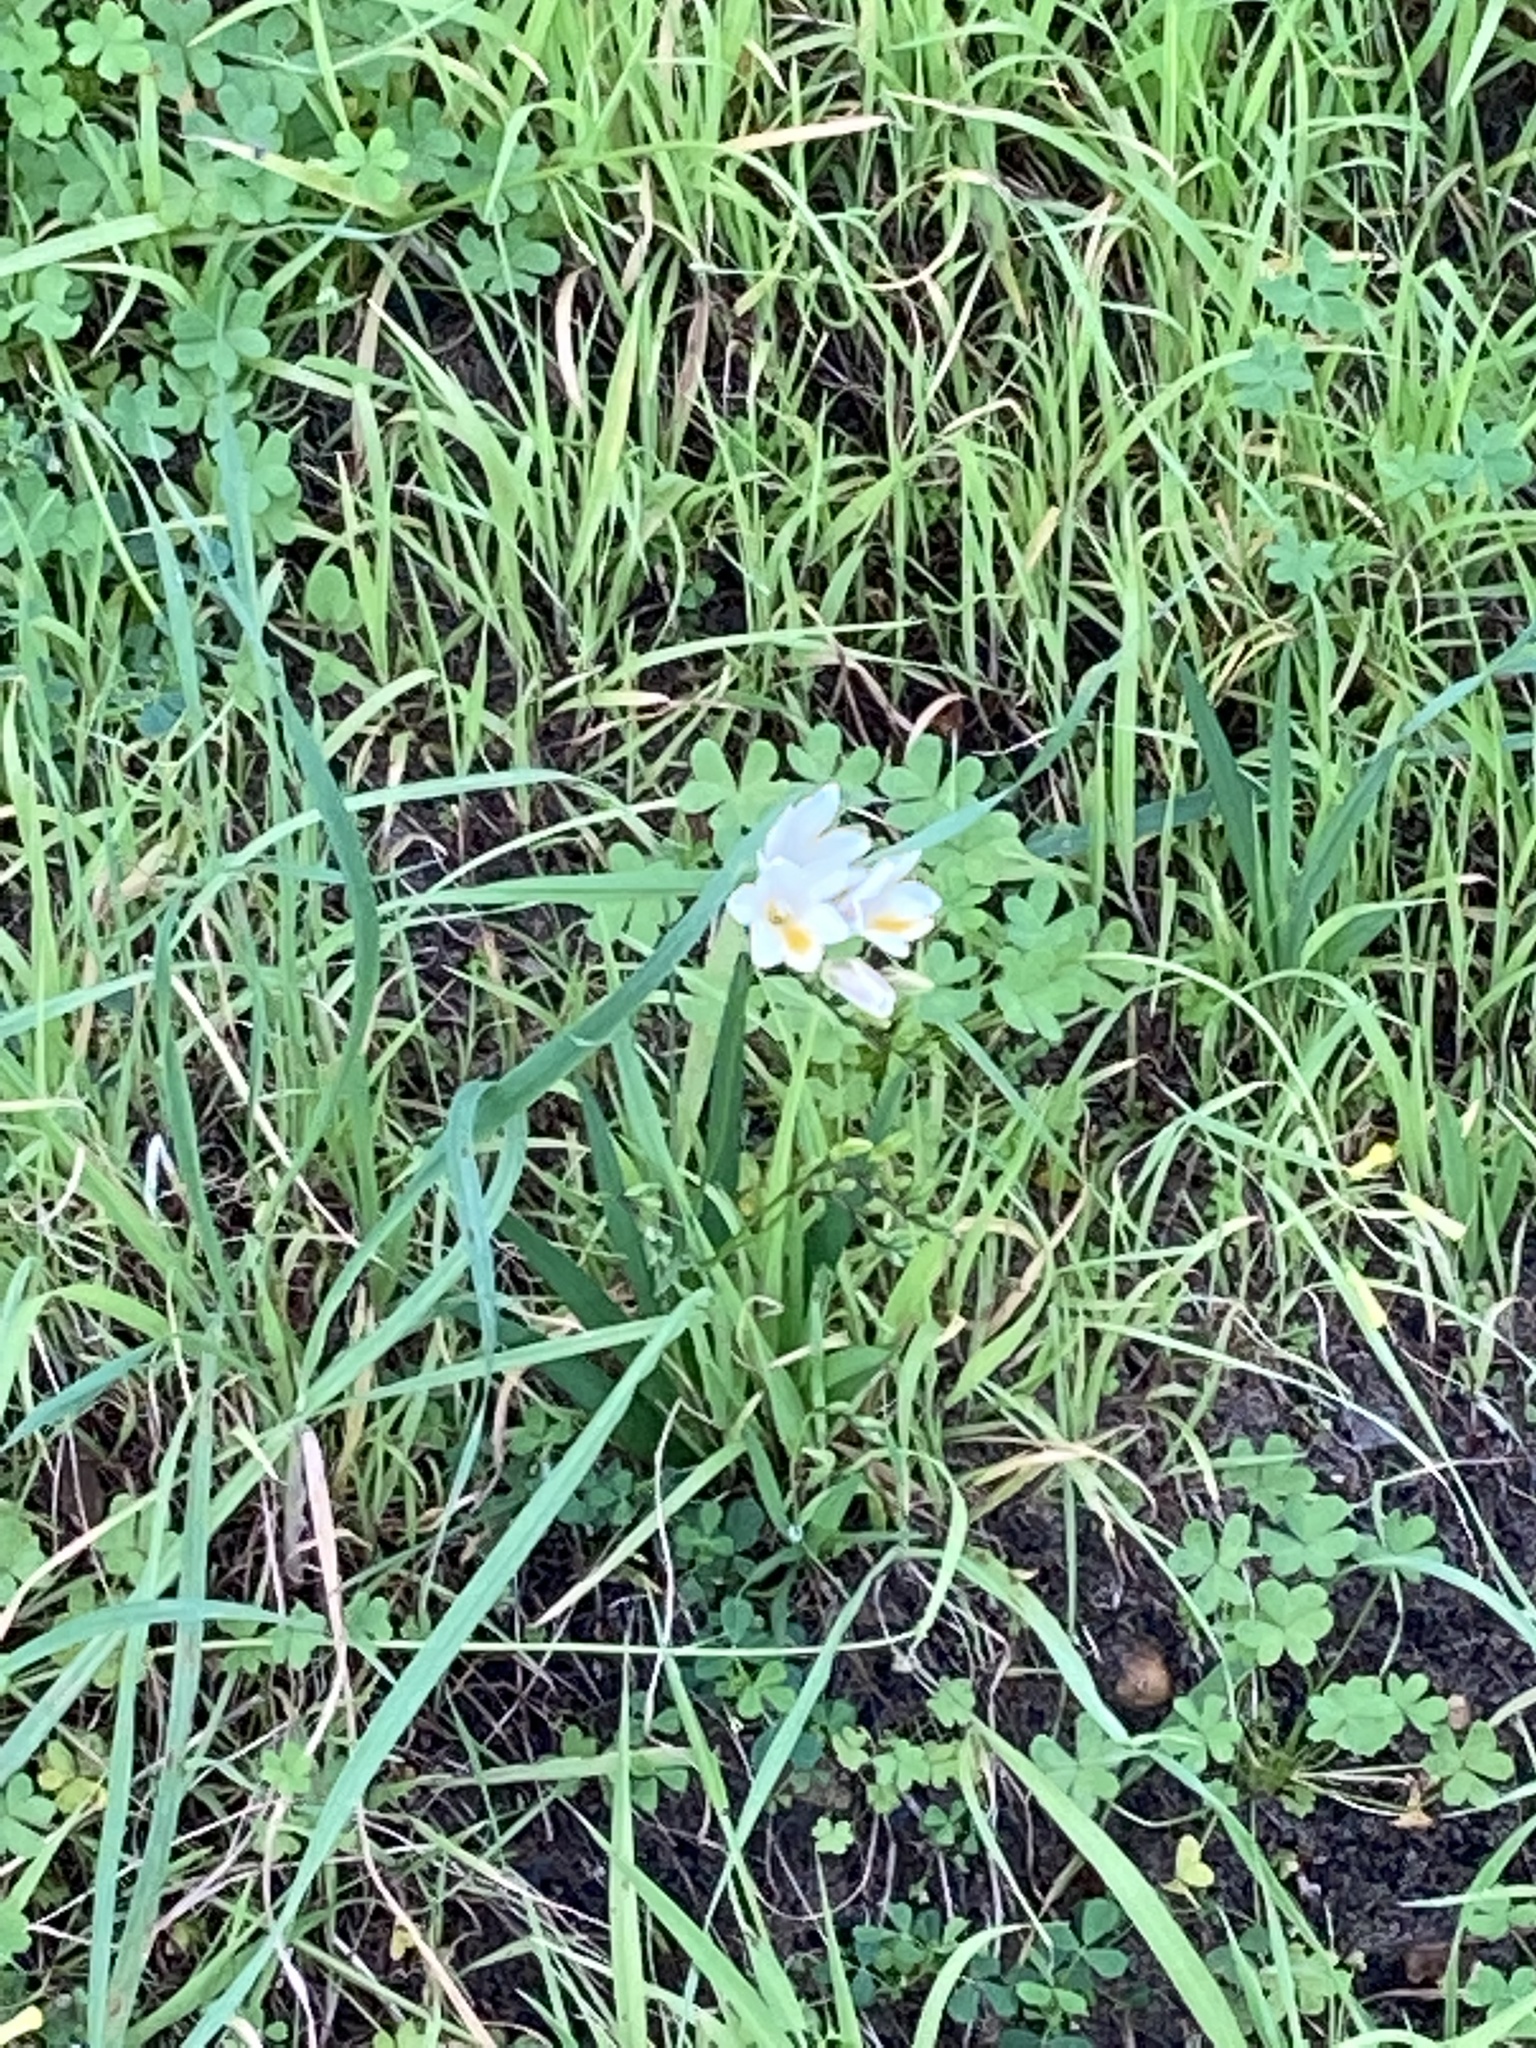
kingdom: Plantae
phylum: Tracheophyta
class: Liliopsida
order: Asparagales
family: Iridaceae
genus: Freesia
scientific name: Freesia
